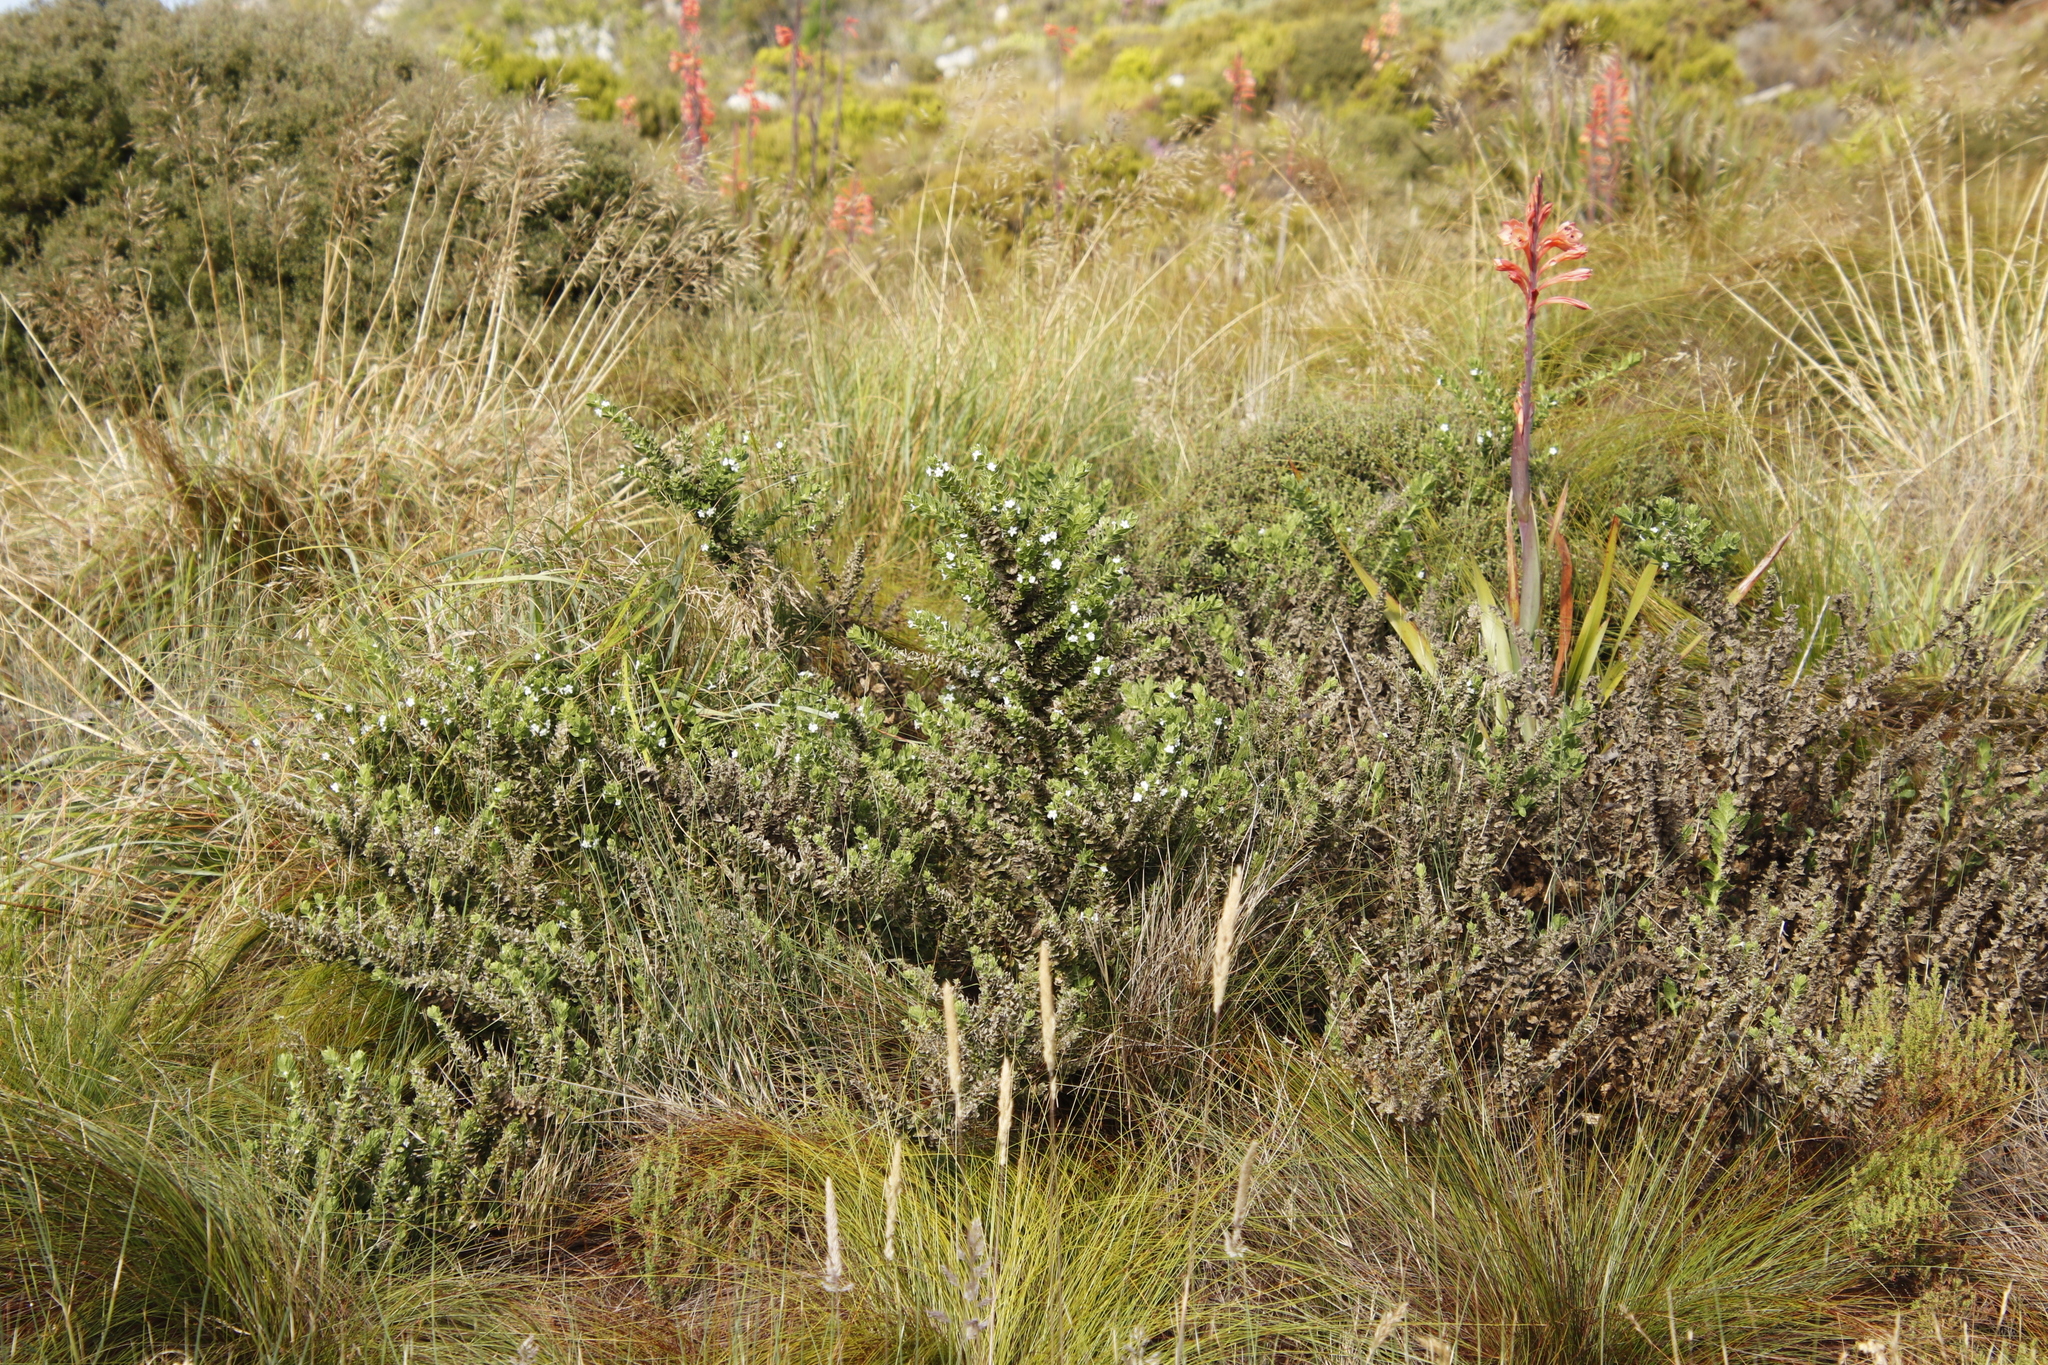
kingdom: Plantae
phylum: Tracheophyta
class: Magnoliopsida
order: Lamiales
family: Scrophulariaceae
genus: Oftia
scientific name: Oftia africana
